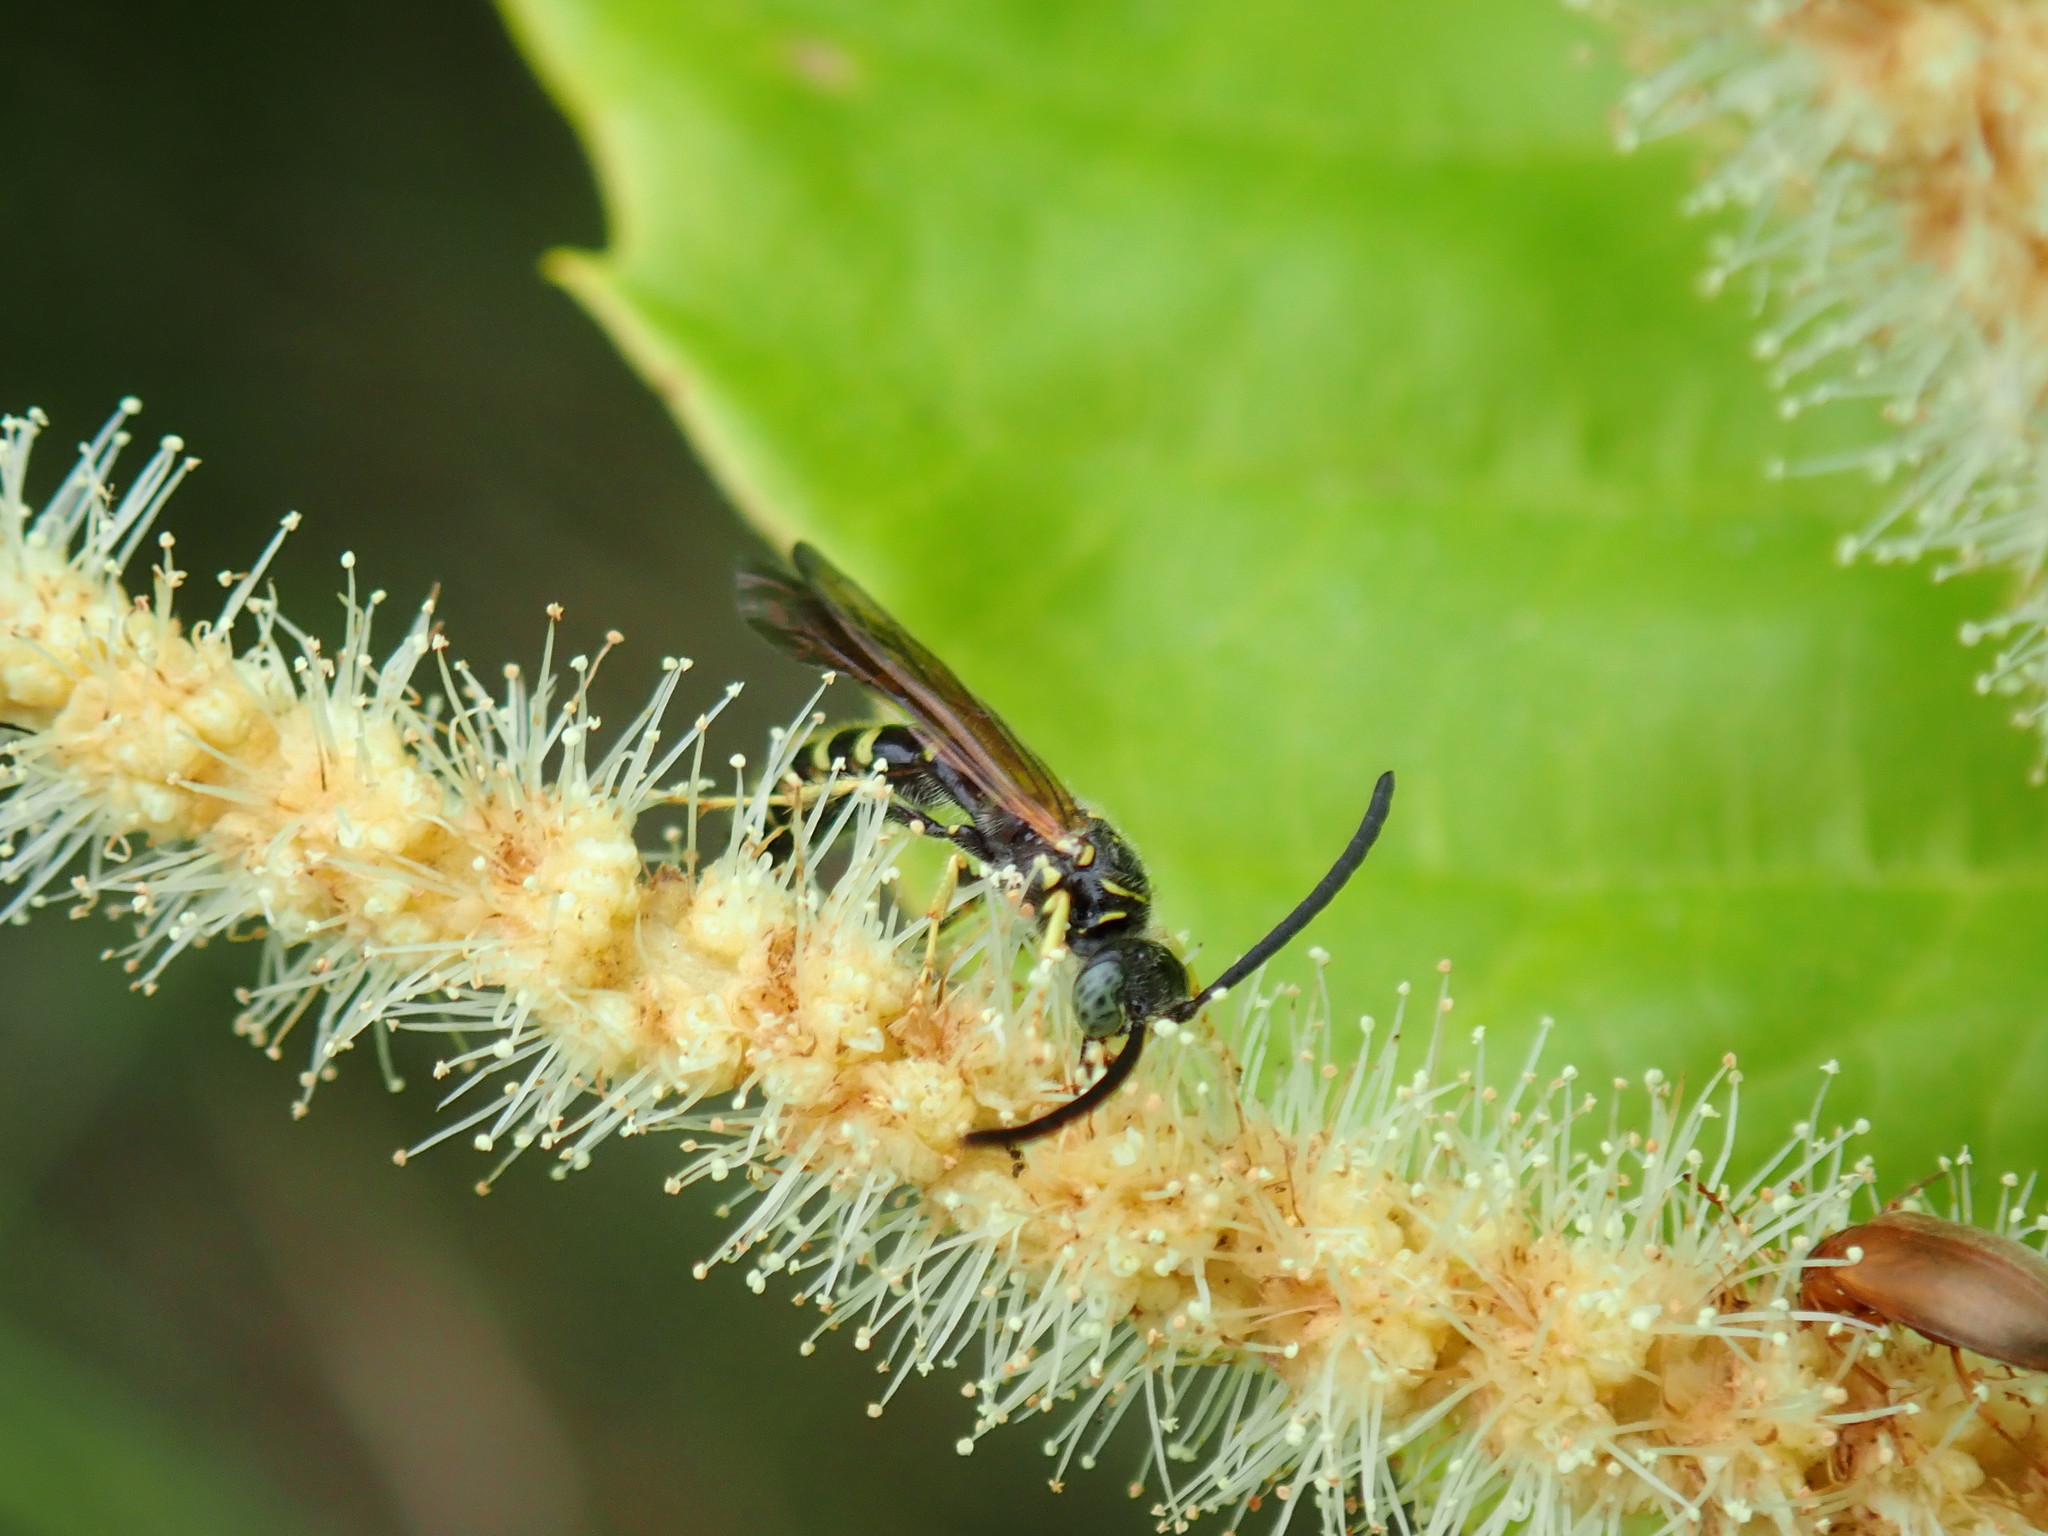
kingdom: Animalia
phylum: Arthropoda
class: Insecta
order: Hymenoptera
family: Tiphiidae
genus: Myzinum
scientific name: Myzinum quinquecinctum
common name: Five-banded thynnid wasp
